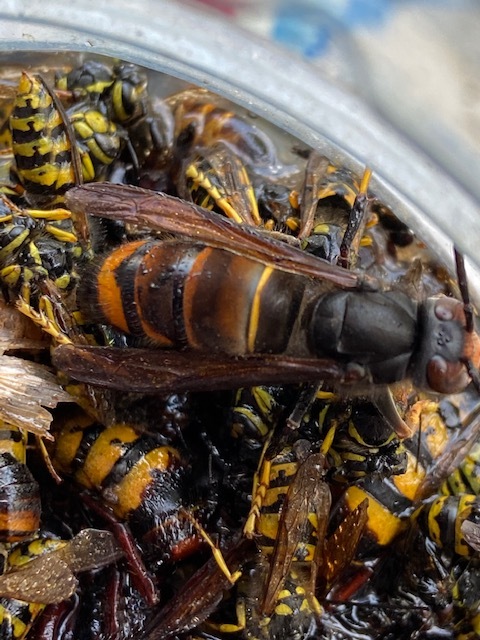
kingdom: Animalia
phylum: Arthropoda
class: Insecta
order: Hymenoptera
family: Vespidae
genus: Vespa
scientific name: Vespa velutina
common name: Asian hornet
